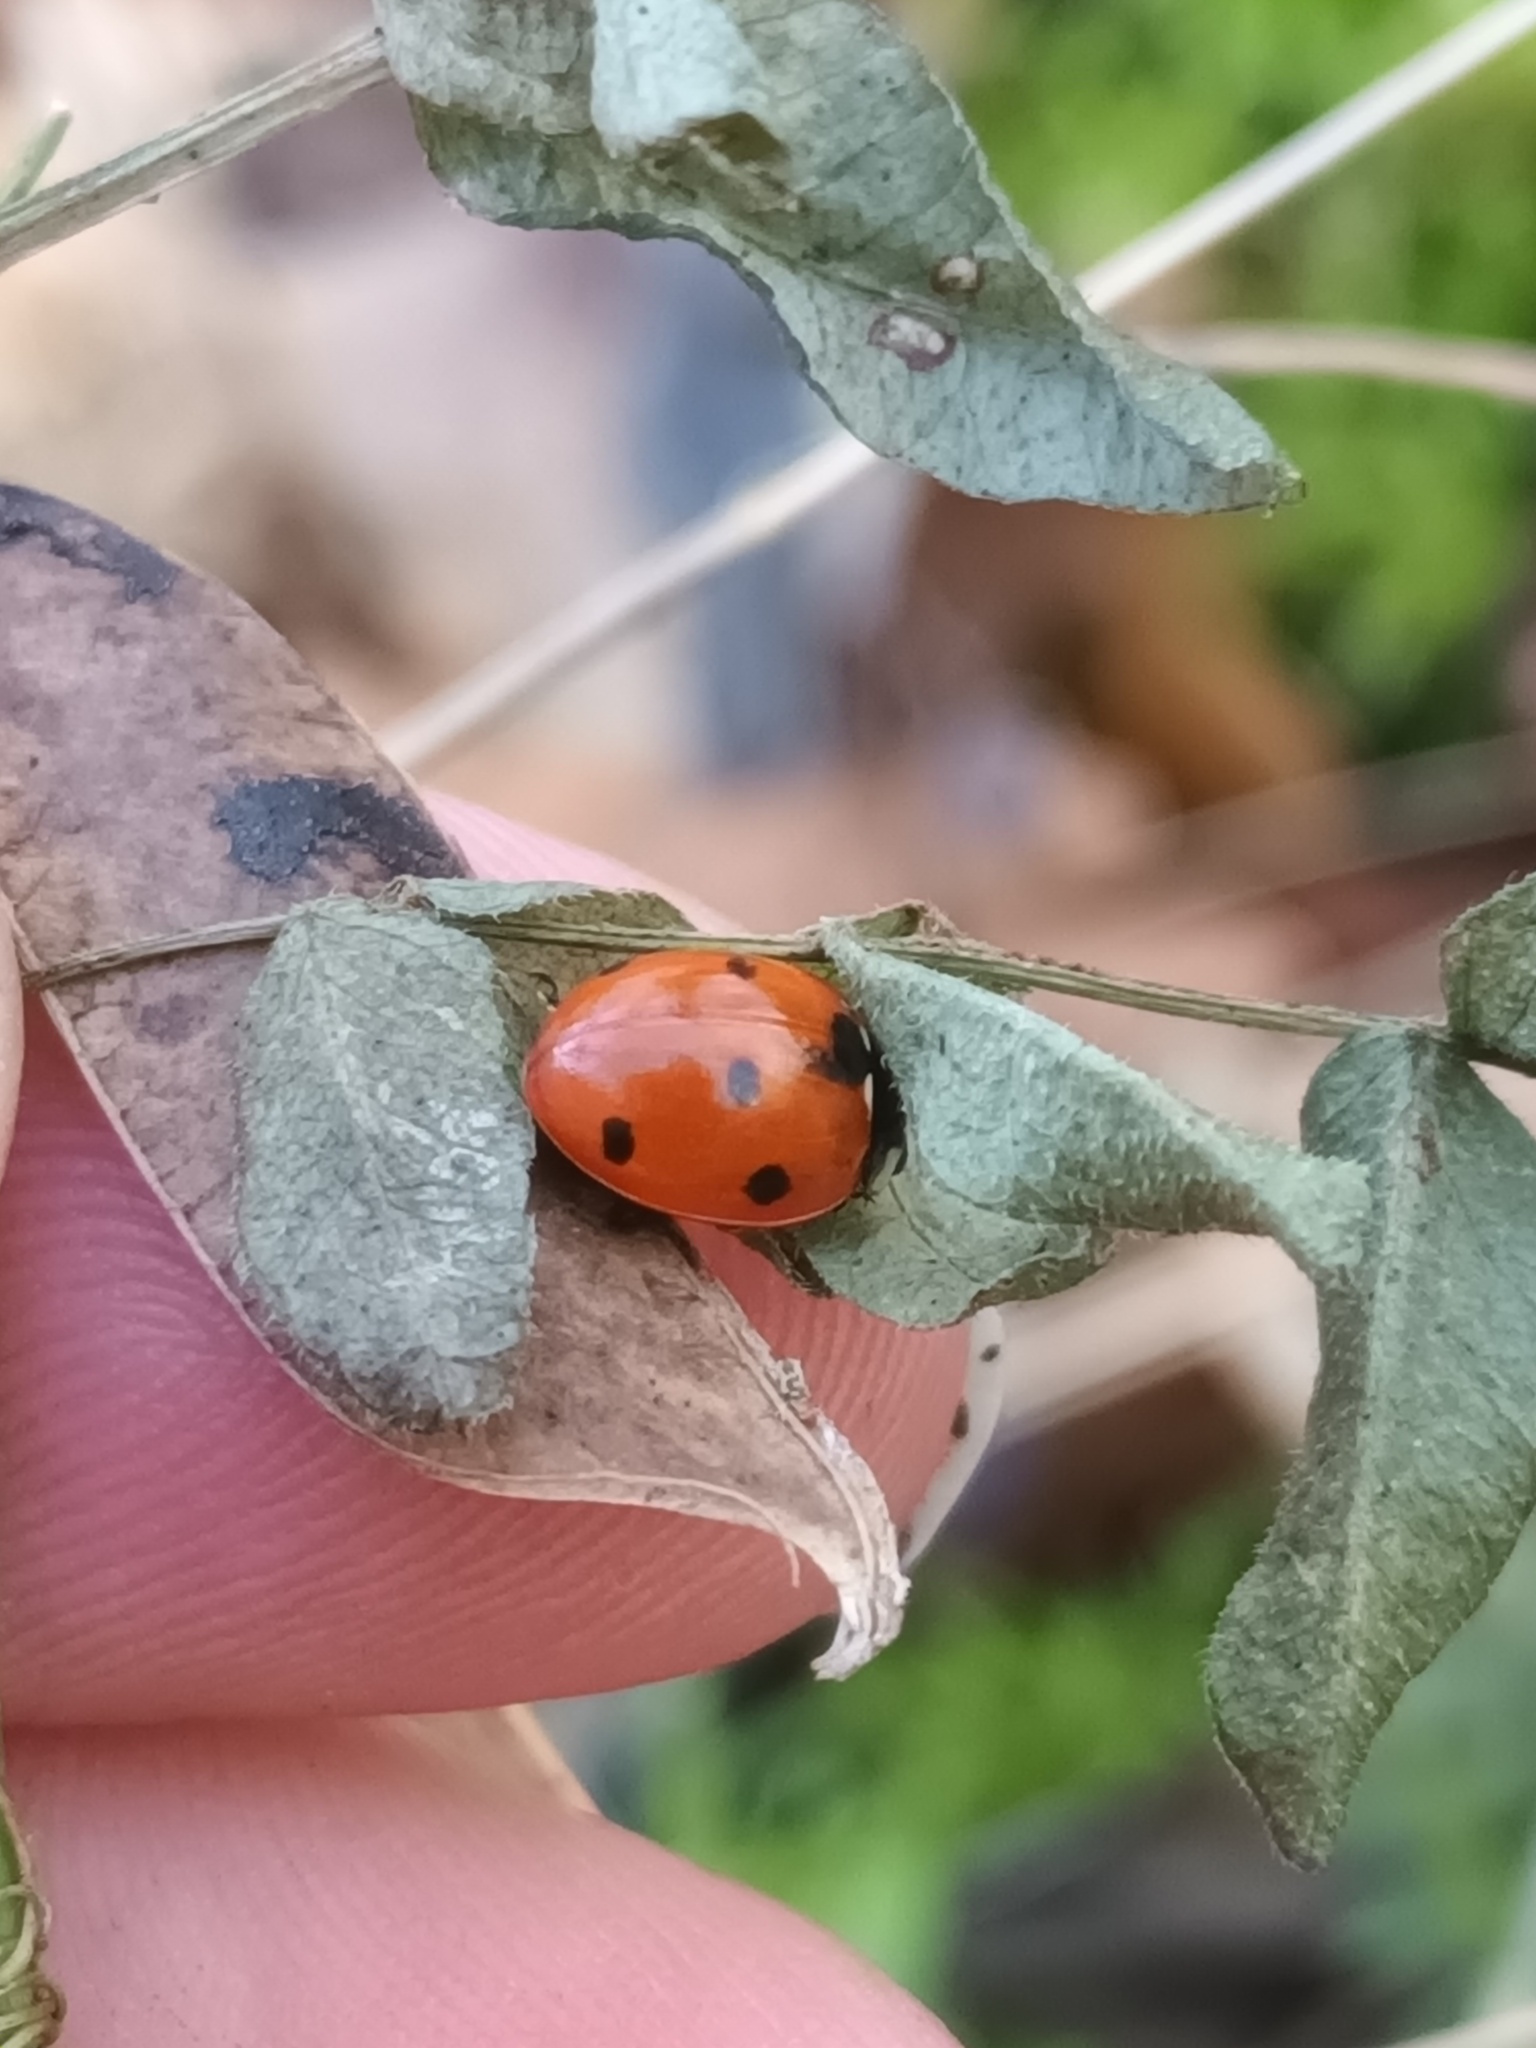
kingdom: Animalia
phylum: Arthropoda
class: Insecta
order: Coleoptera
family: Coccinellidae
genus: Coccinella
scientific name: Coccinella septempunctata
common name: Sevenspotted lady beetle
